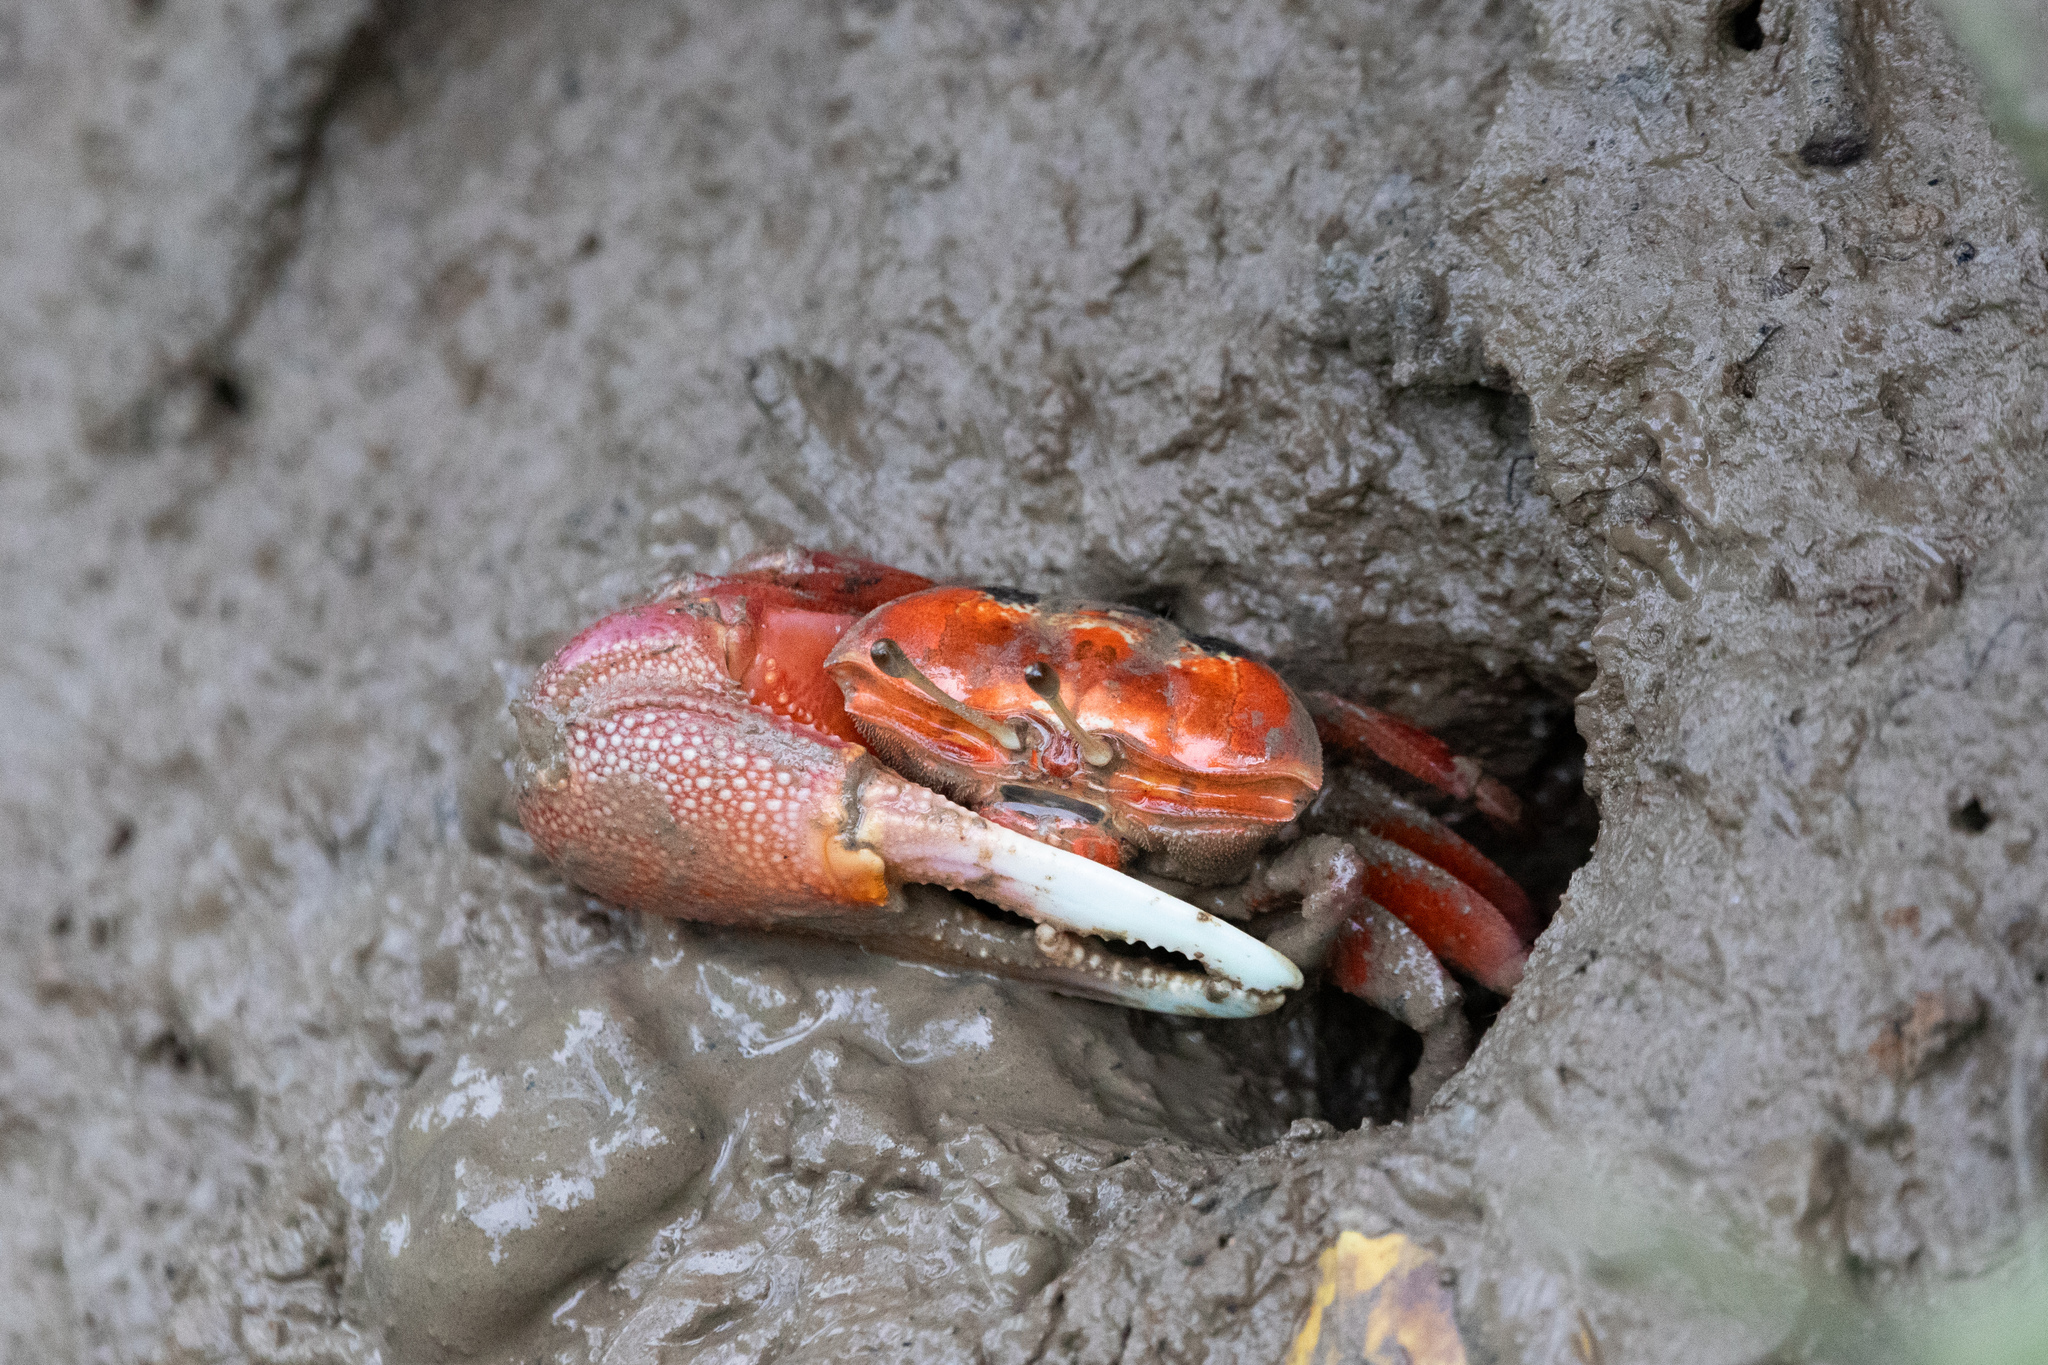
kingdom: Animalia
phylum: Arthropoda
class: Malacostraca
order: Decapoda
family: Ocypodidae
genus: Tubuca
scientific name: Tubuca arcuata
